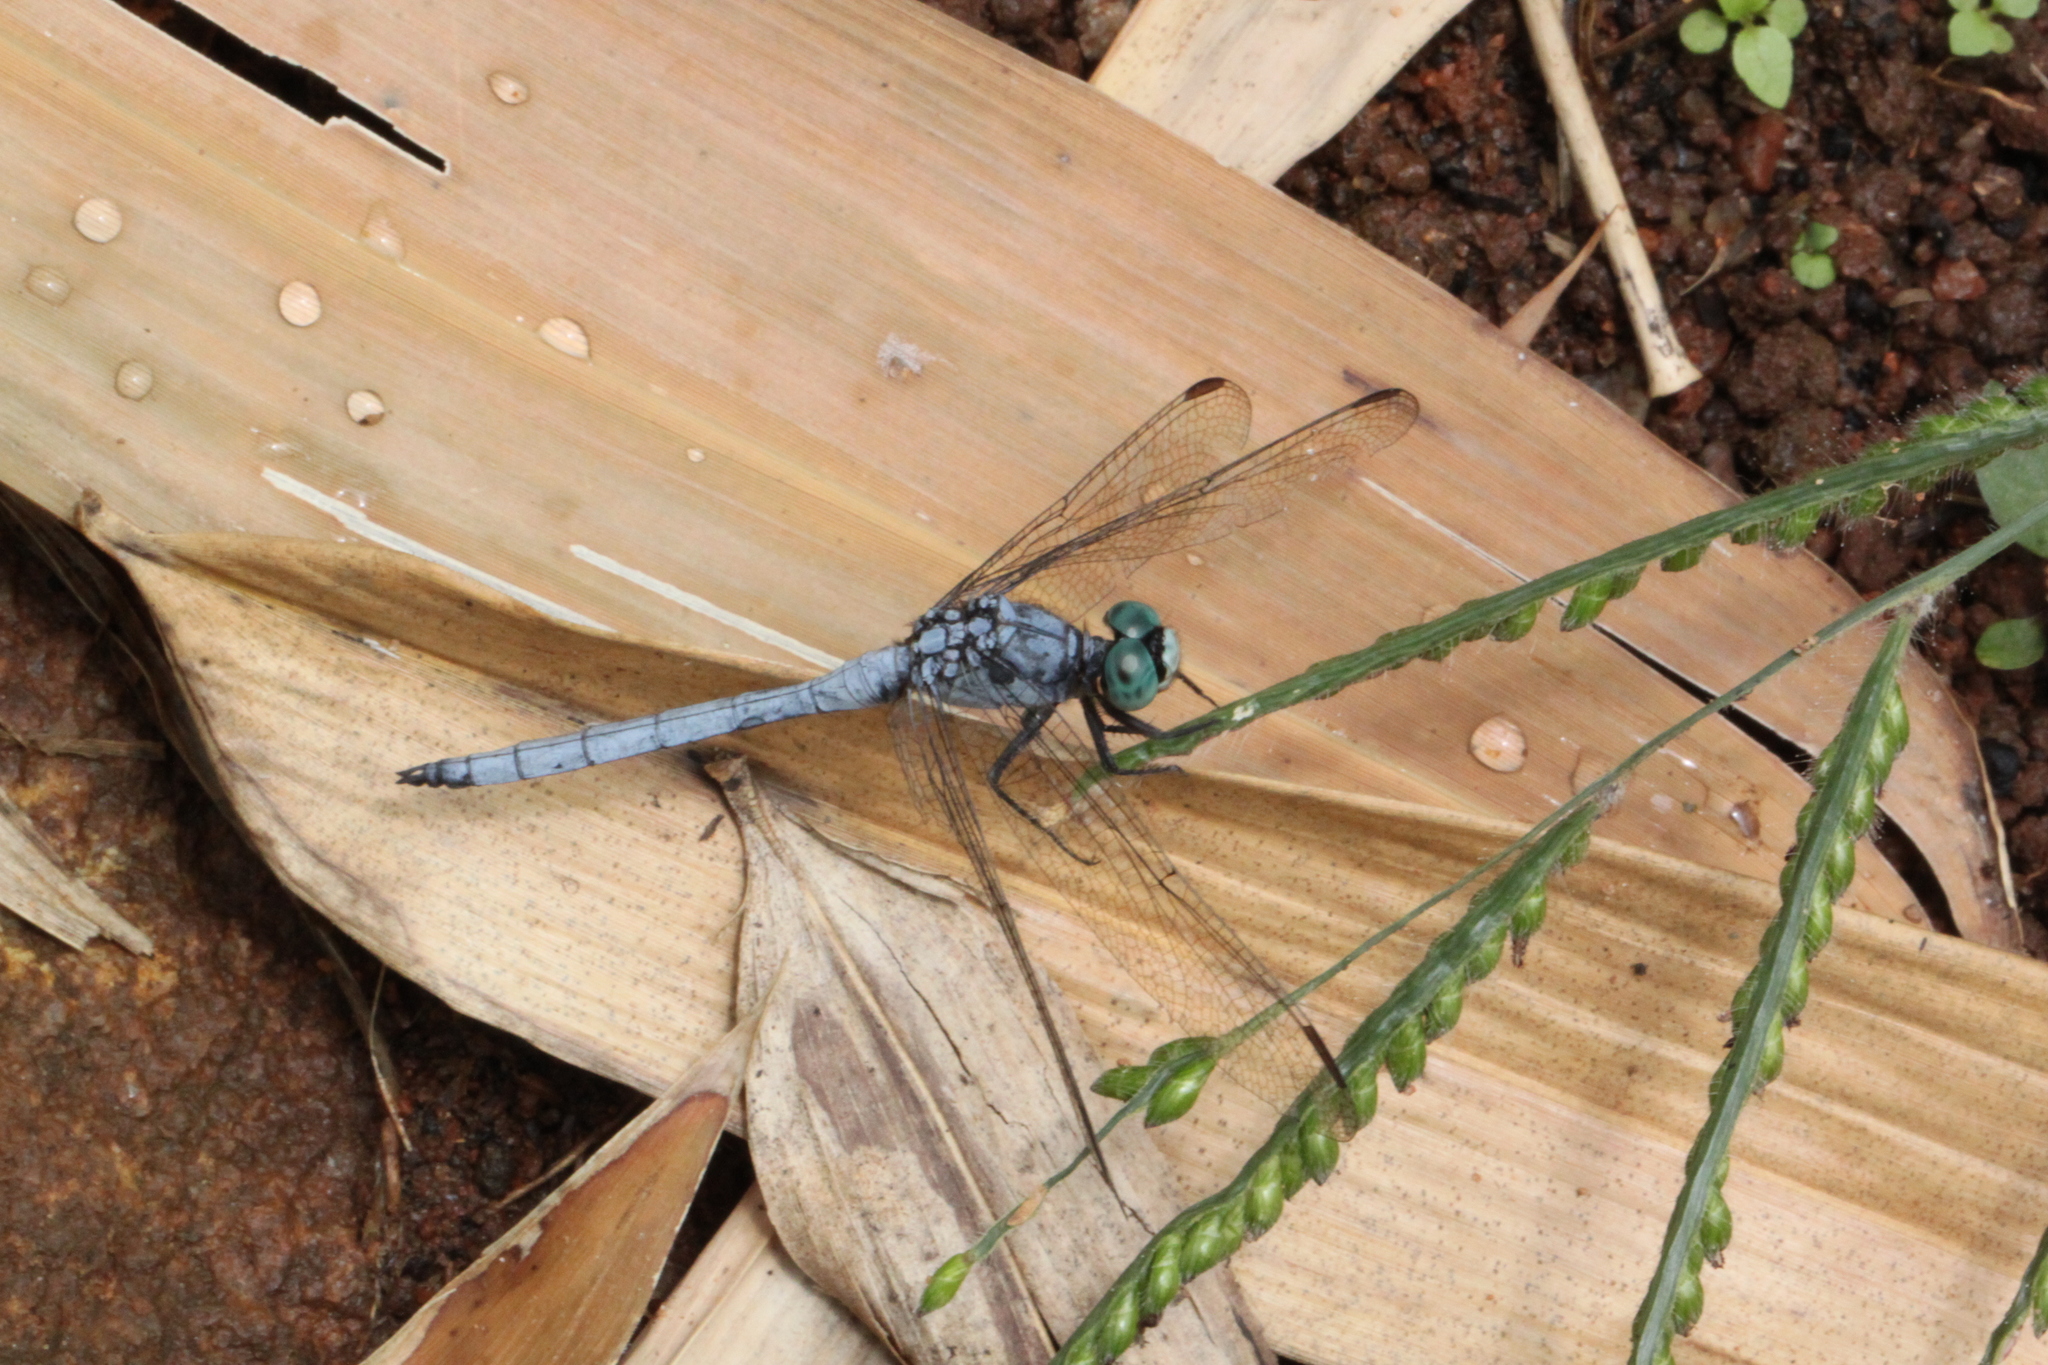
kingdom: Animalia
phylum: Arthropoda
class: Insecta
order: Odonata
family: Libellulidae
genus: Orthetrum
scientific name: Orthetrum luzonicum
